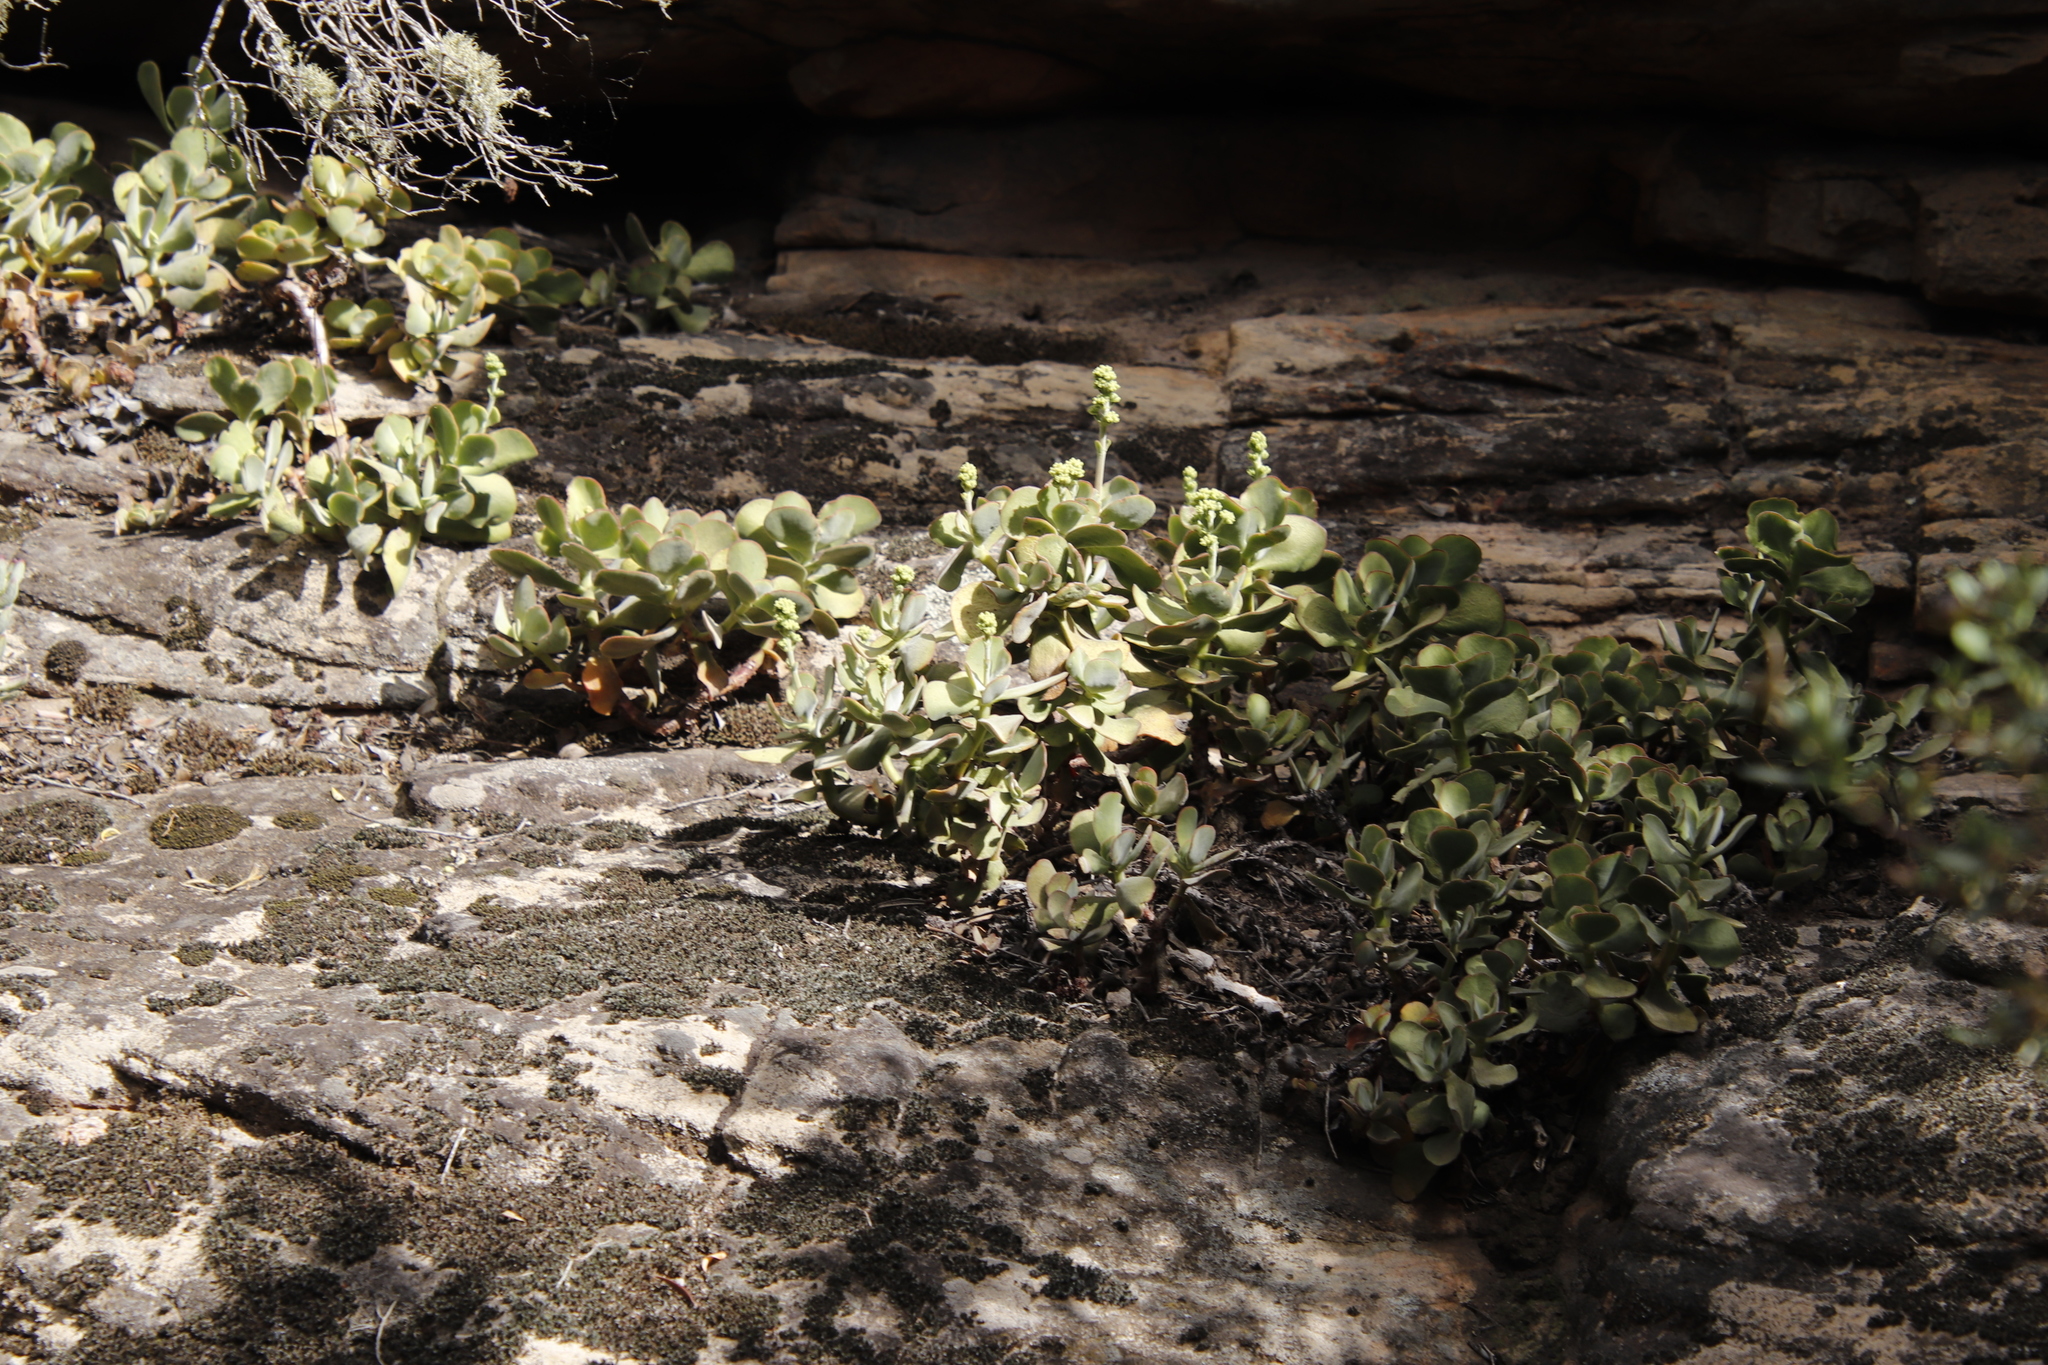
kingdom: Plantae
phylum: Tracheophyta
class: Magnoliopsida
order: Saxifragales
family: Crassulaceae
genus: Crassula
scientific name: Crassula atropurpurea
